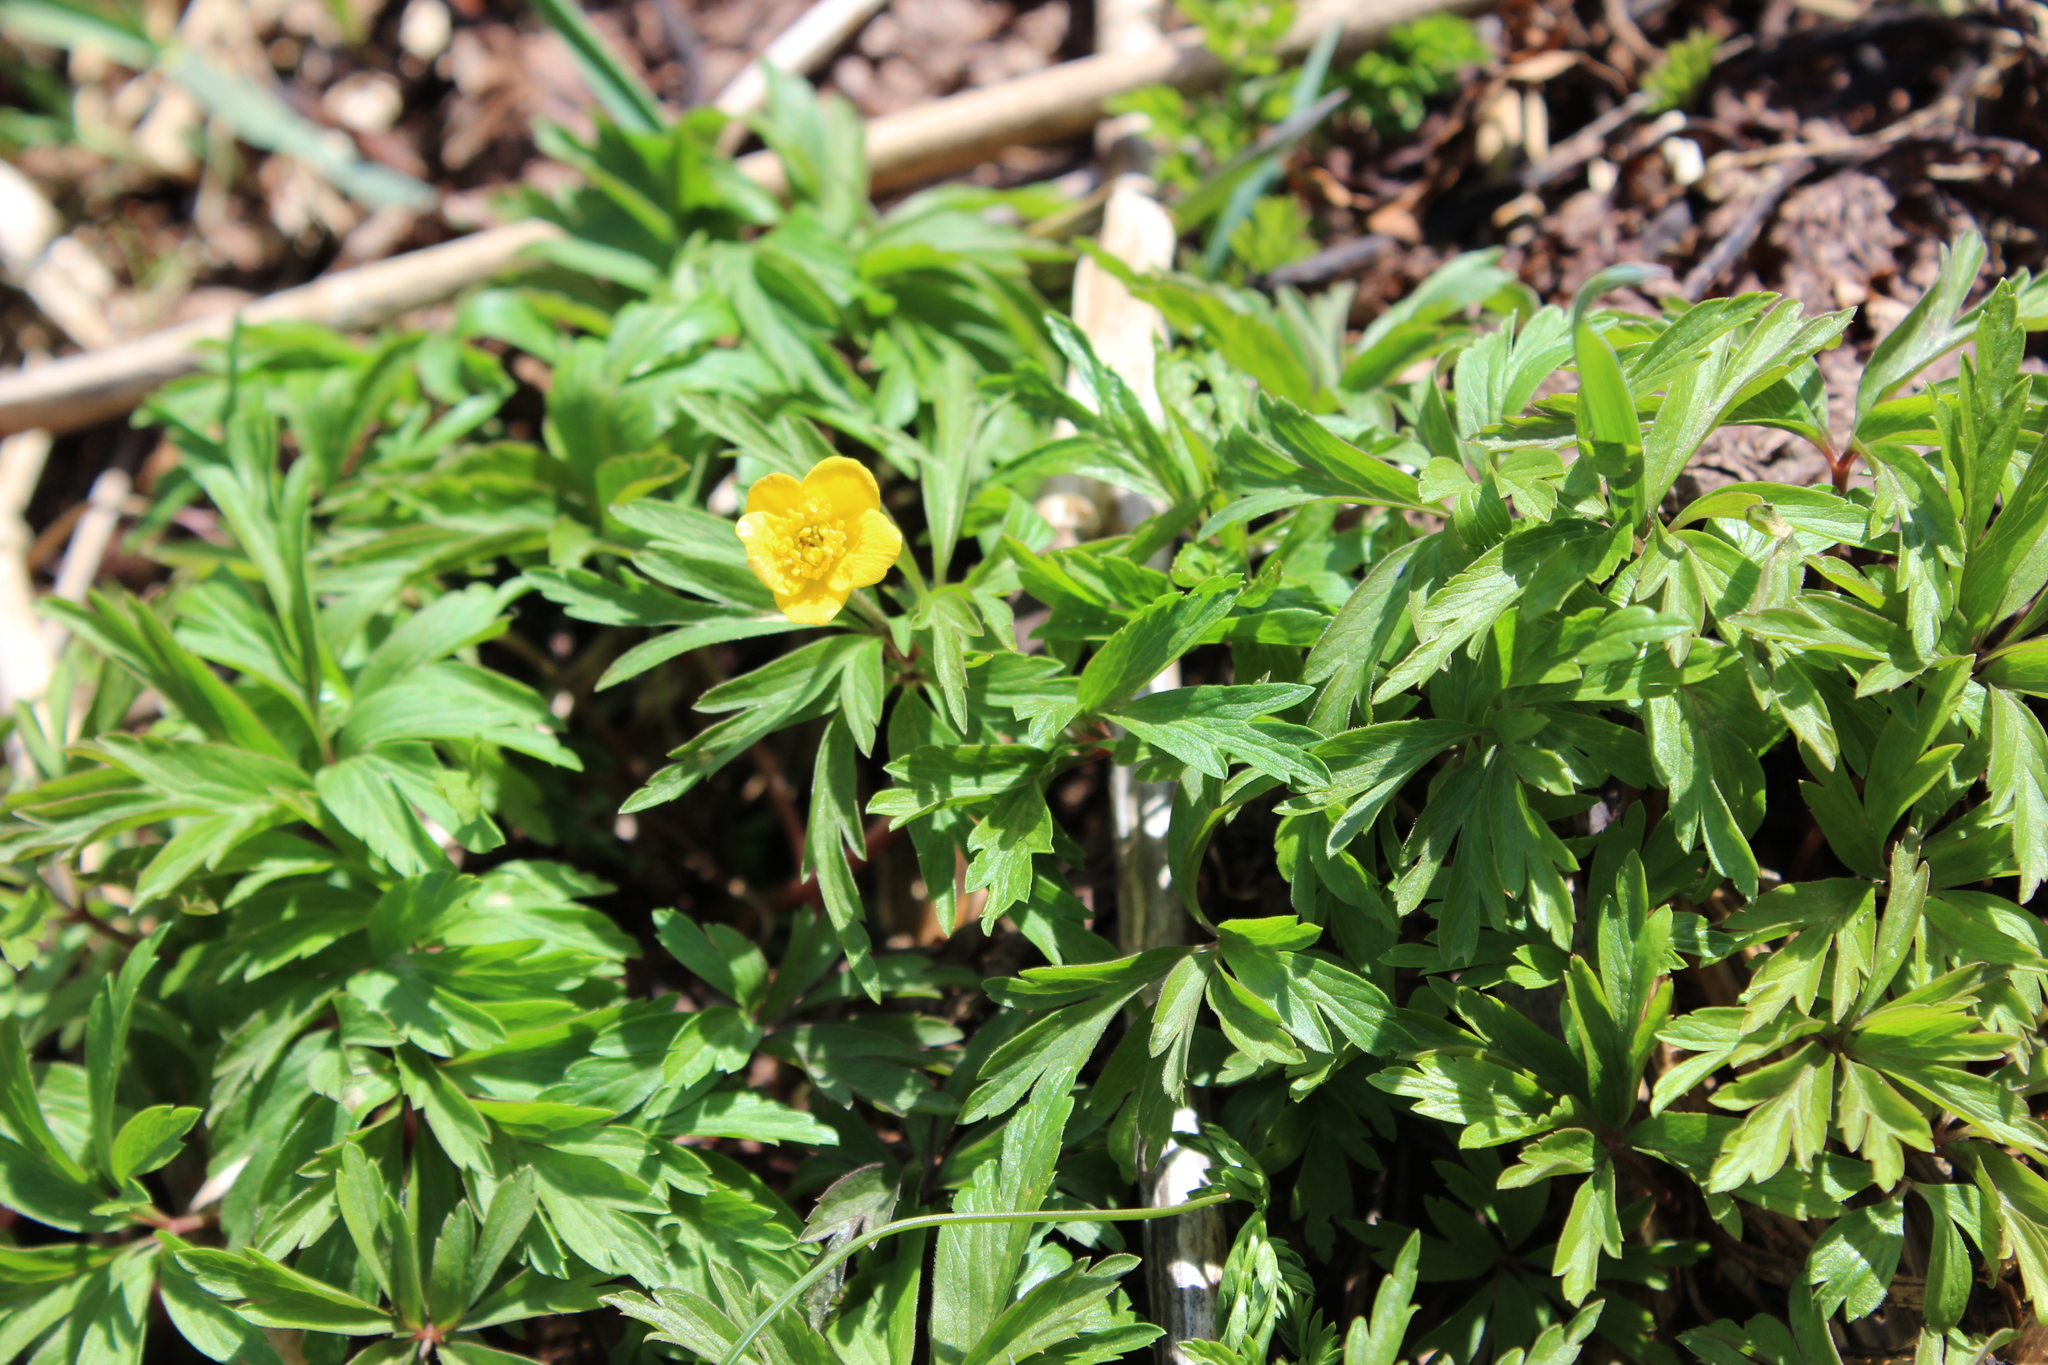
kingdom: Plantae
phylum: Tracheophyta
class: Magnoliopsida
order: Ranunculales
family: Ranunculaceae
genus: Anemone
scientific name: Anemone ranunculoides
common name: Yellow anemone
